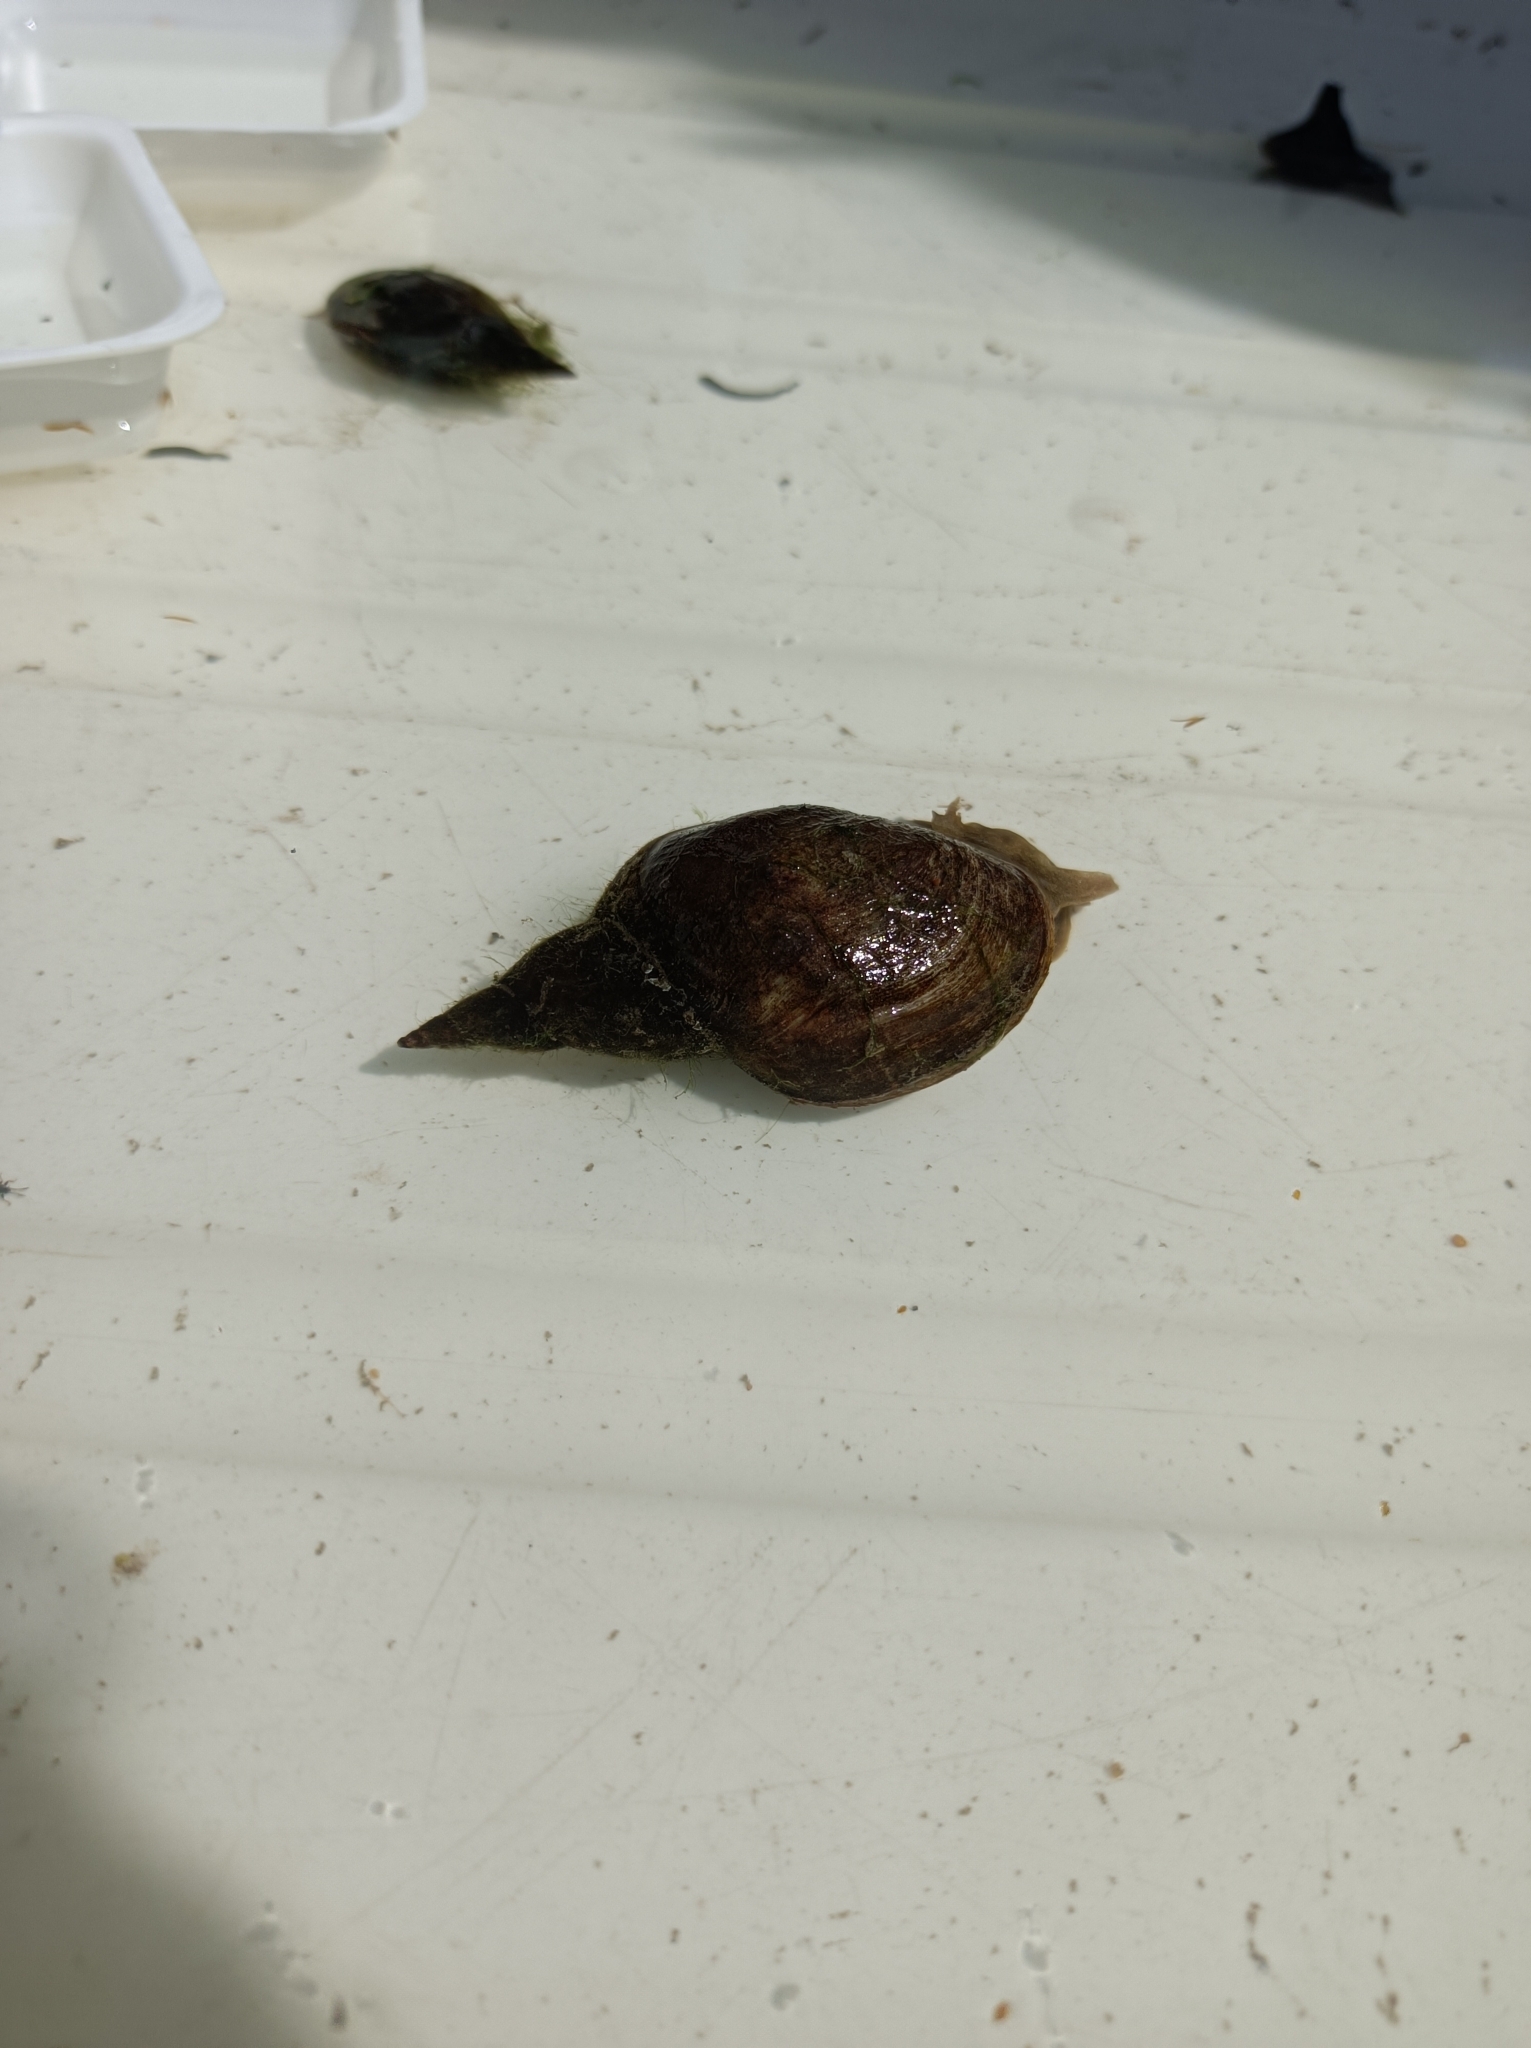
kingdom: Animalia
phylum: Mollusca
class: Gastropoda
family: Lymnaeidae
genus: Lymnaea
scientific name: Lymnaea stagnalis
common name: Great pond snail
